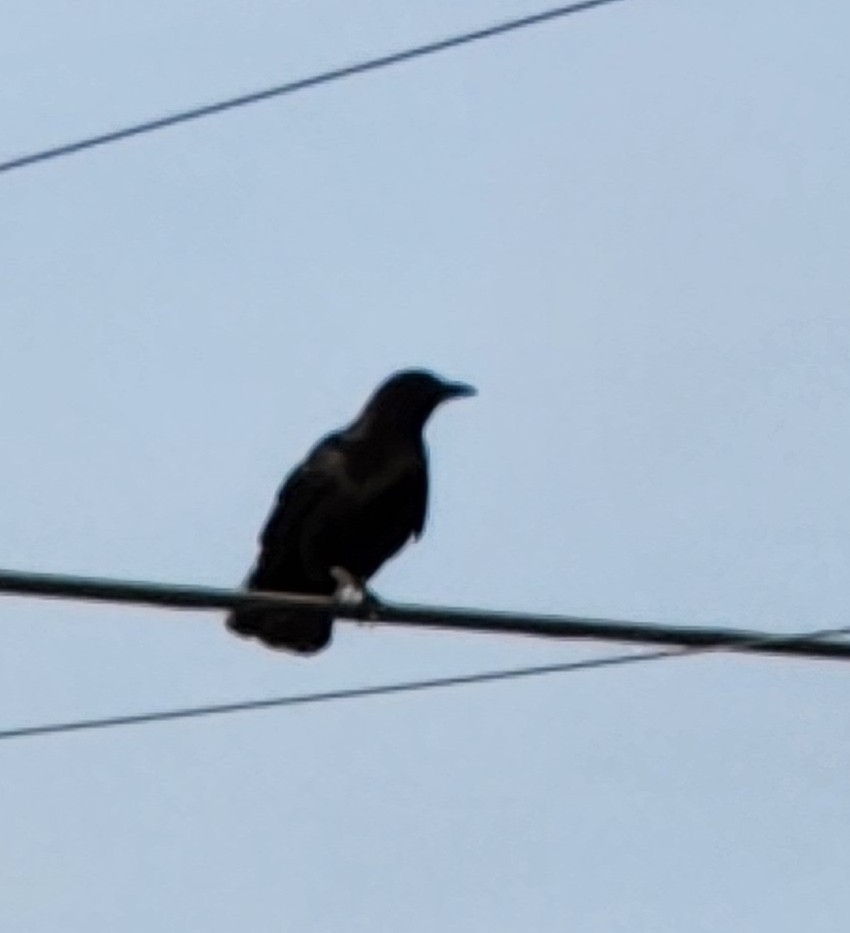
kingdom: Animalia
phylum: Chordata
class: Aves
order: Passeriformes
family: Corvidae
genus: Corvus
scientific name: Corvus brachyrhynchos
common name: American crow
